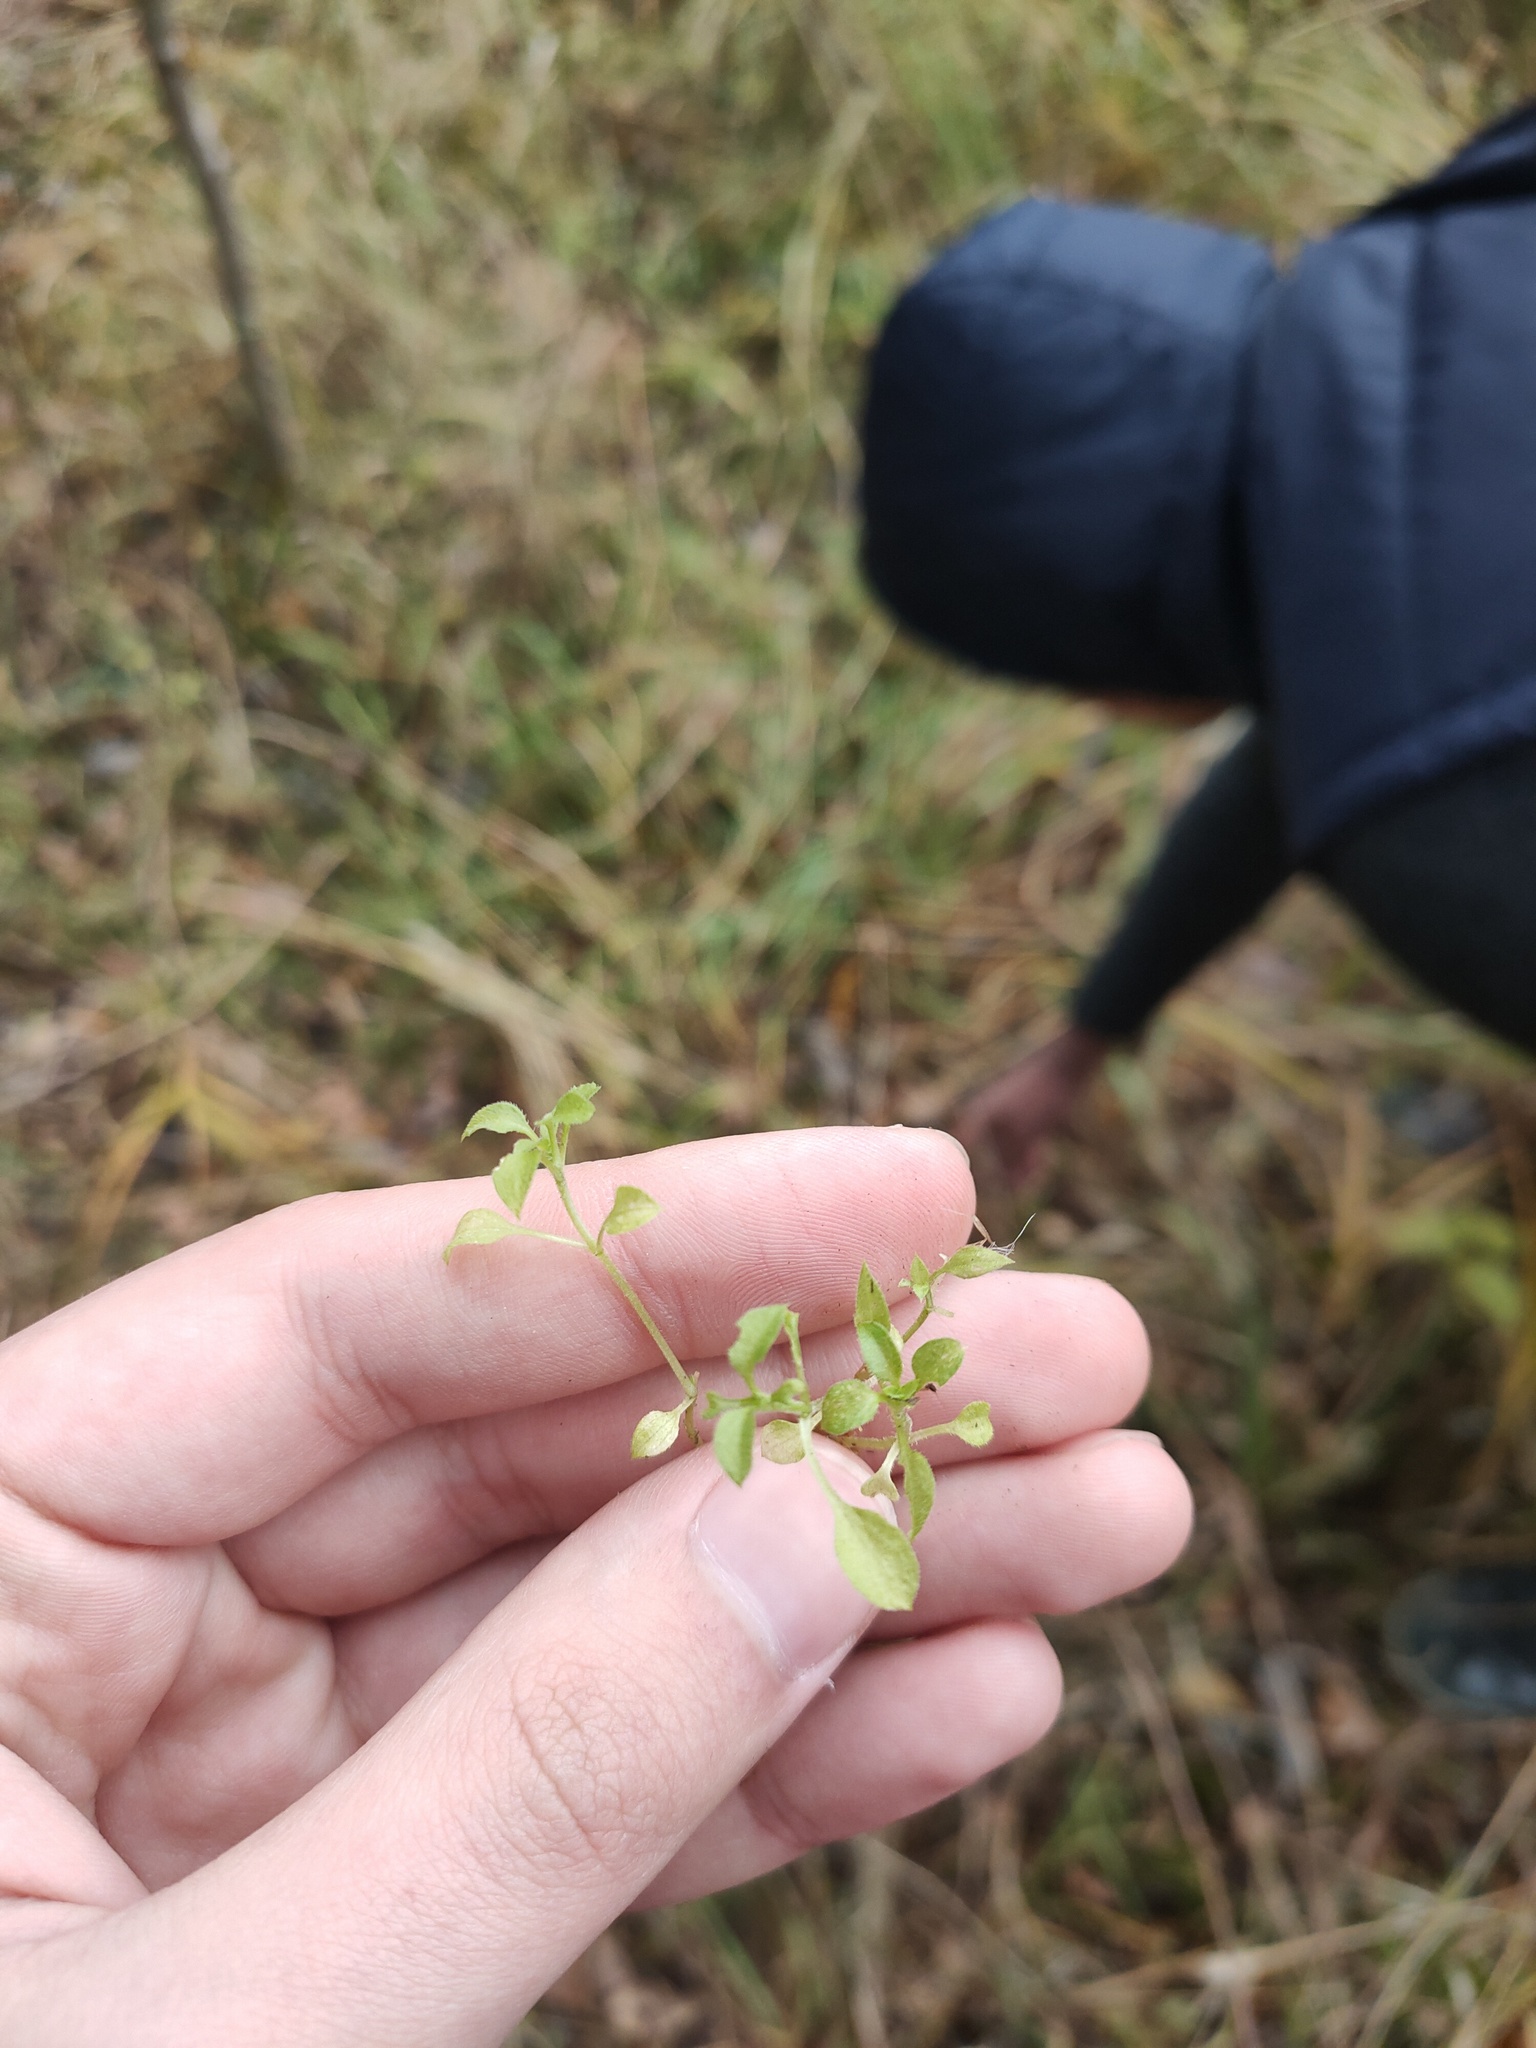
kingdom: Plantae
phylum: Tracheophyta
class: Magnoliopsida
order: Caryophyllales
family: Caryophyllaceae
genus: Moehringia
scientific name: Moehringia trinervia
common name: Three-nerved sandwort
